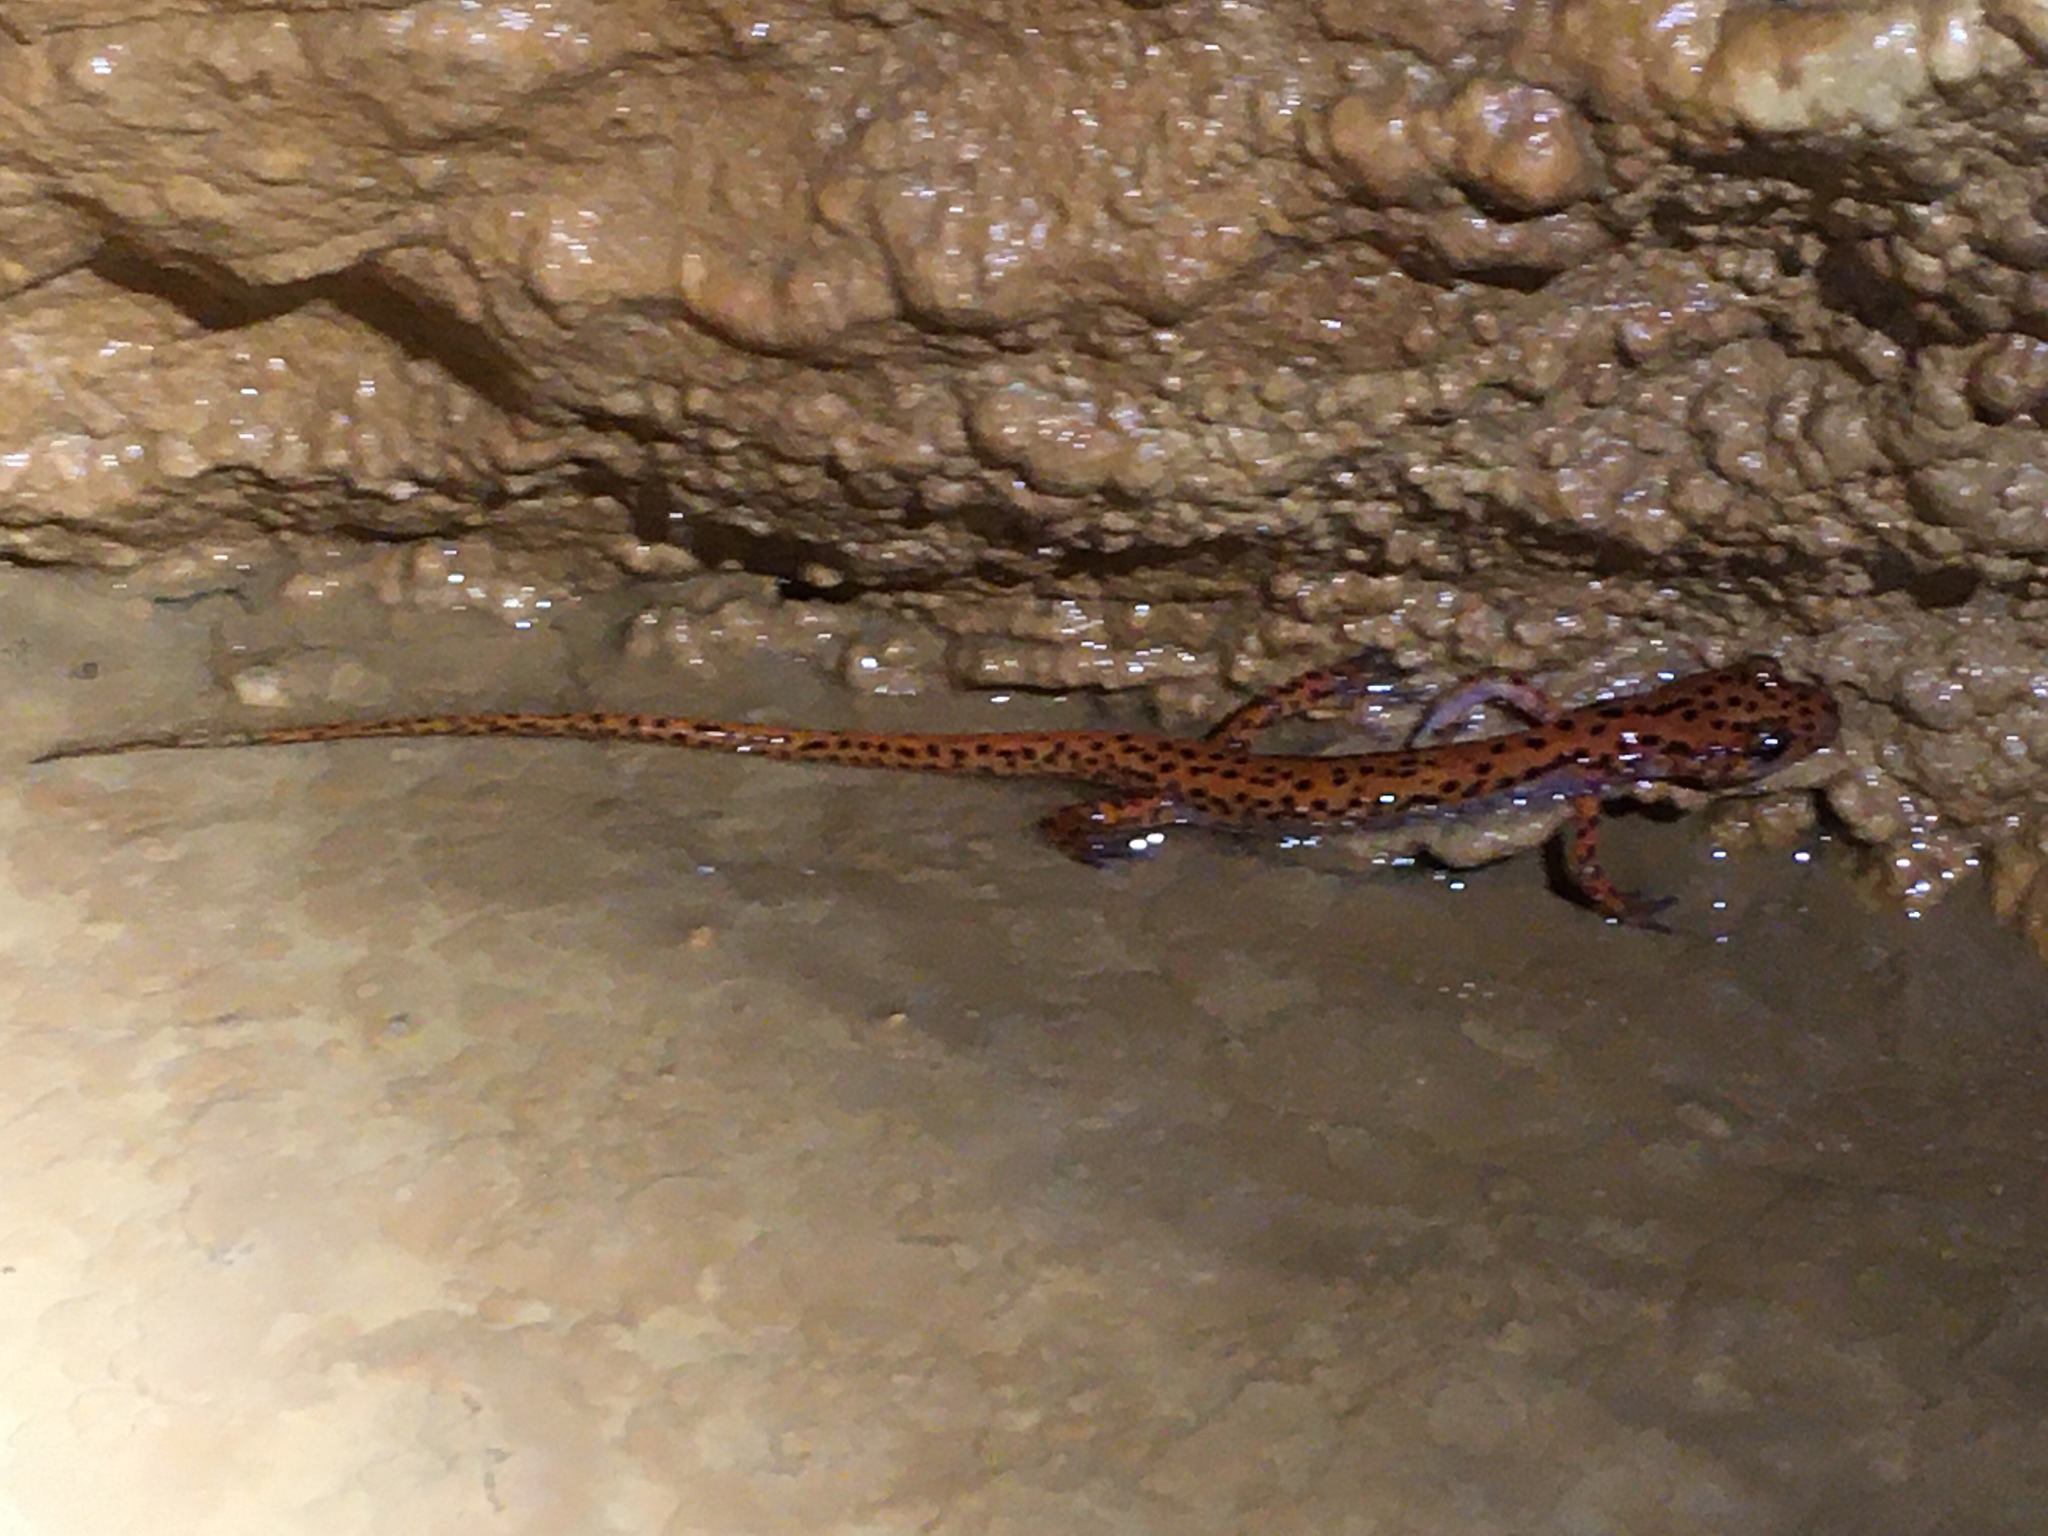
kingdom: Animalia
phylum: Chordata
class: Amphibia
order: Caudata
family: Plethodontidae
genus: Eurycea
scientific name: Eurycea lucifuga
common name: Cave salamander
